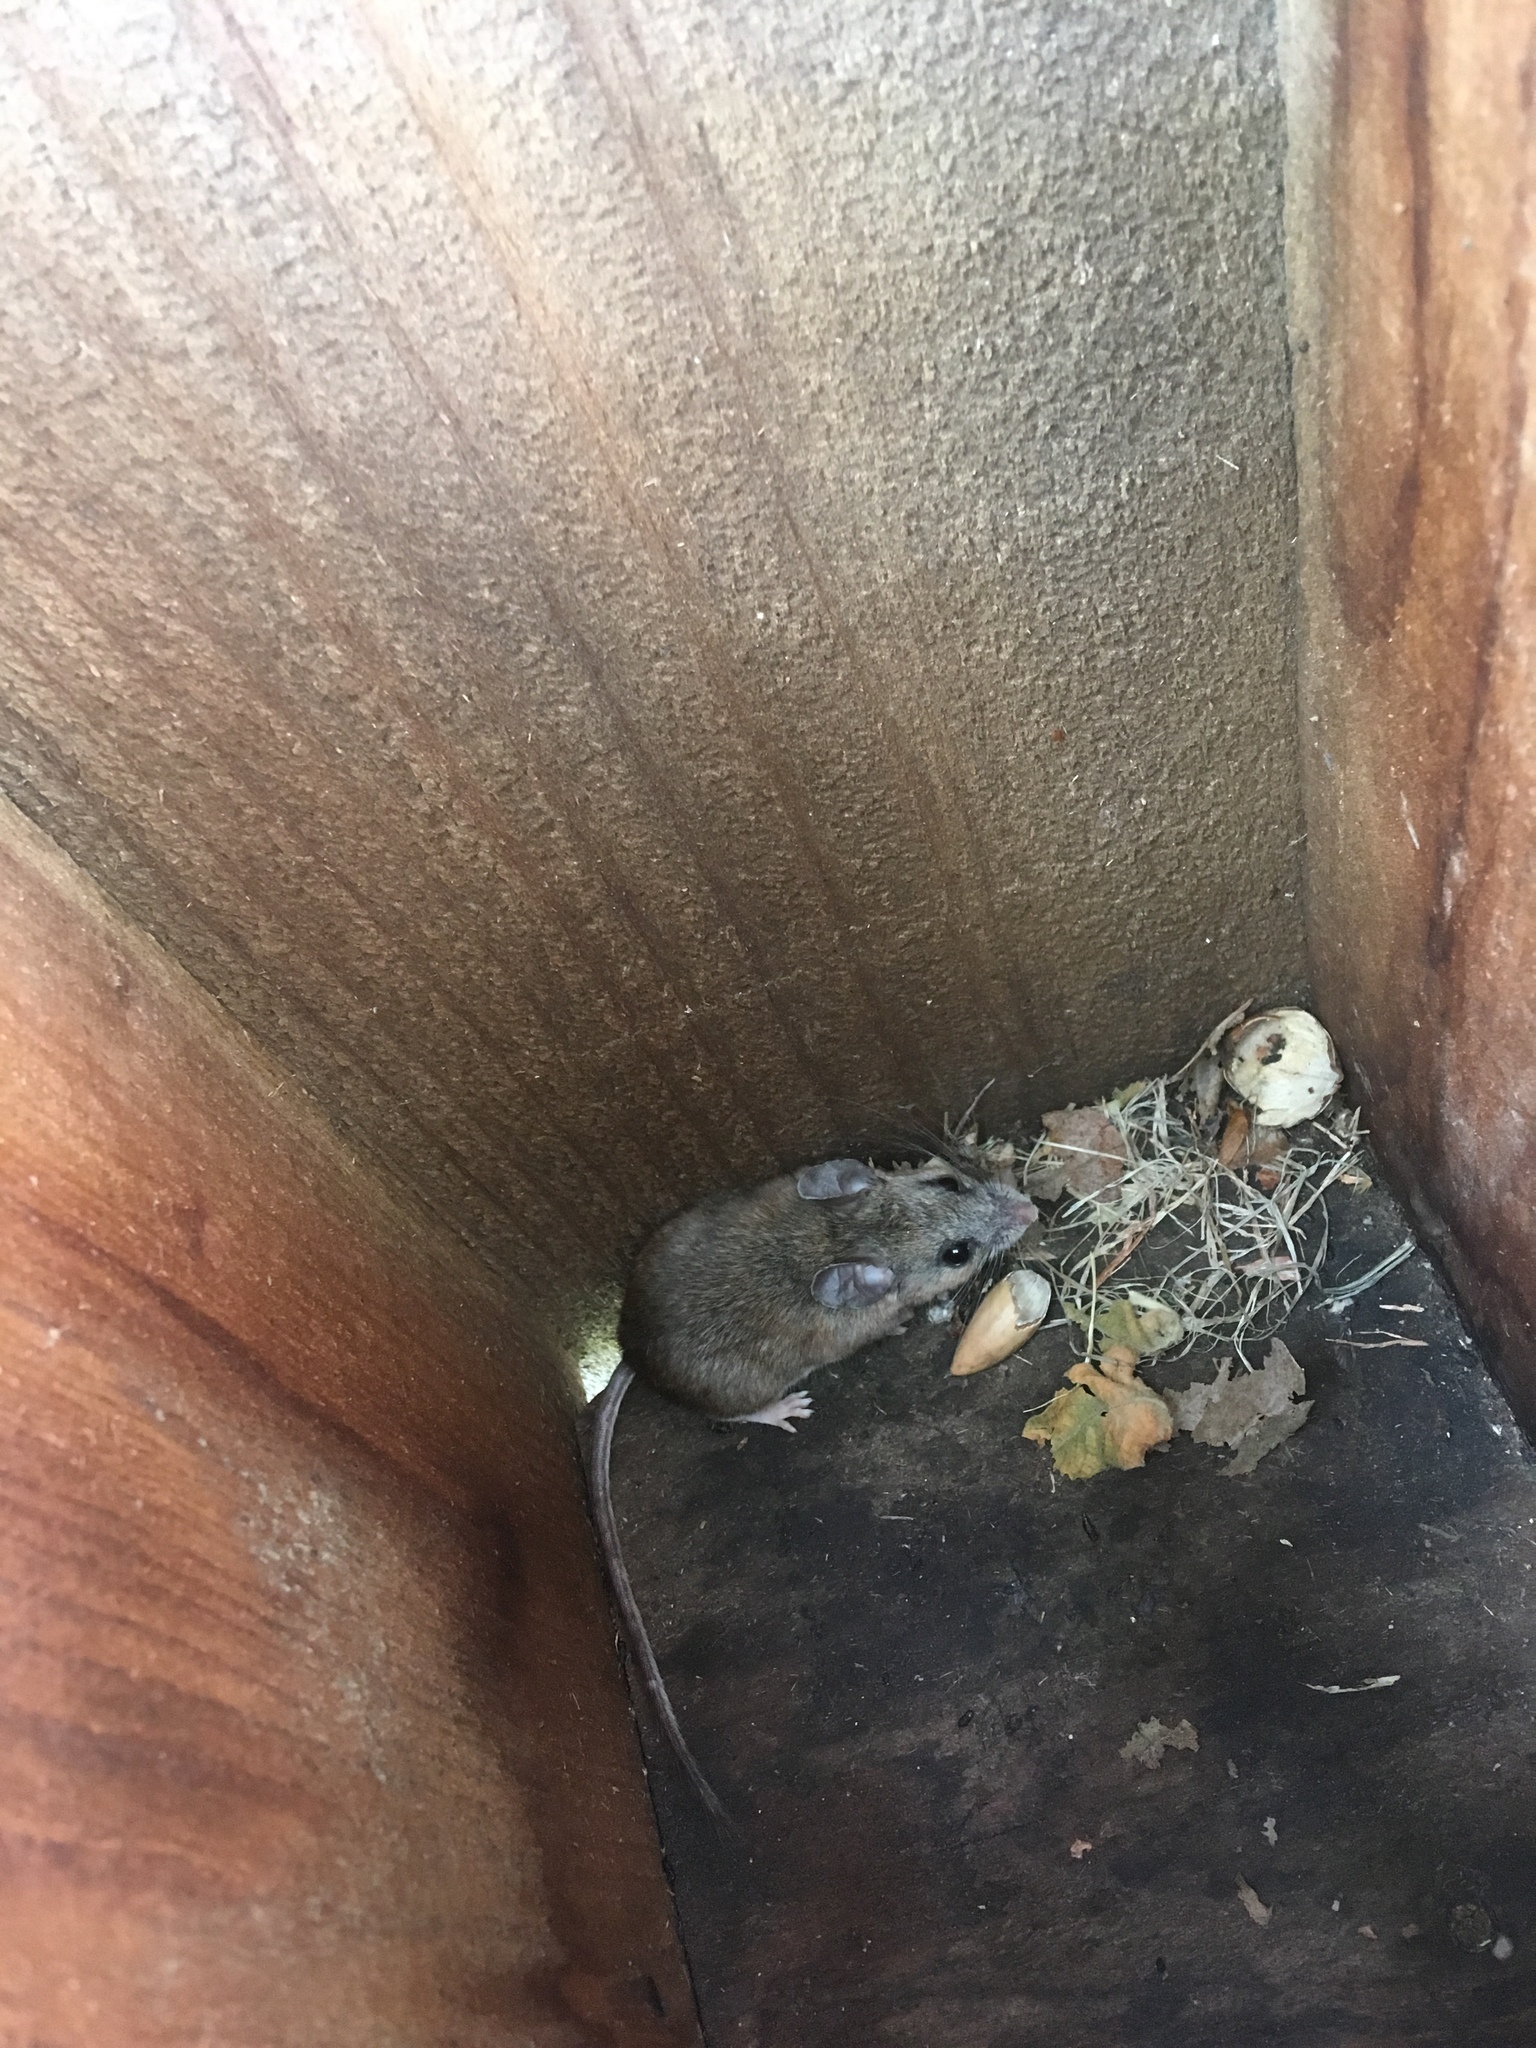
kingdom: Animalia
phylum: Chordata
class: Mammalia
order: Rodentia
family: Cricetidae
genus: Peromyscus
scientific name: Peromyscus maniculatus
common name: Deer mouse
